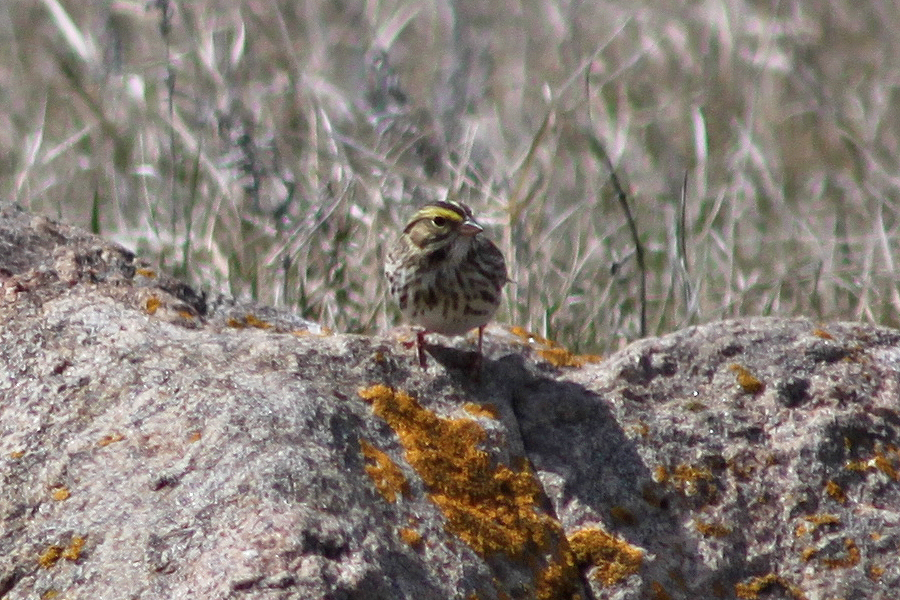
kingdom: Animalia
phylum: Chordata
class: Aves
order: Passeriformes
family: Passerellidae
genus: Passerculus
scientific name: Passerculus sandwichensis
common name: Savannah sparrow
